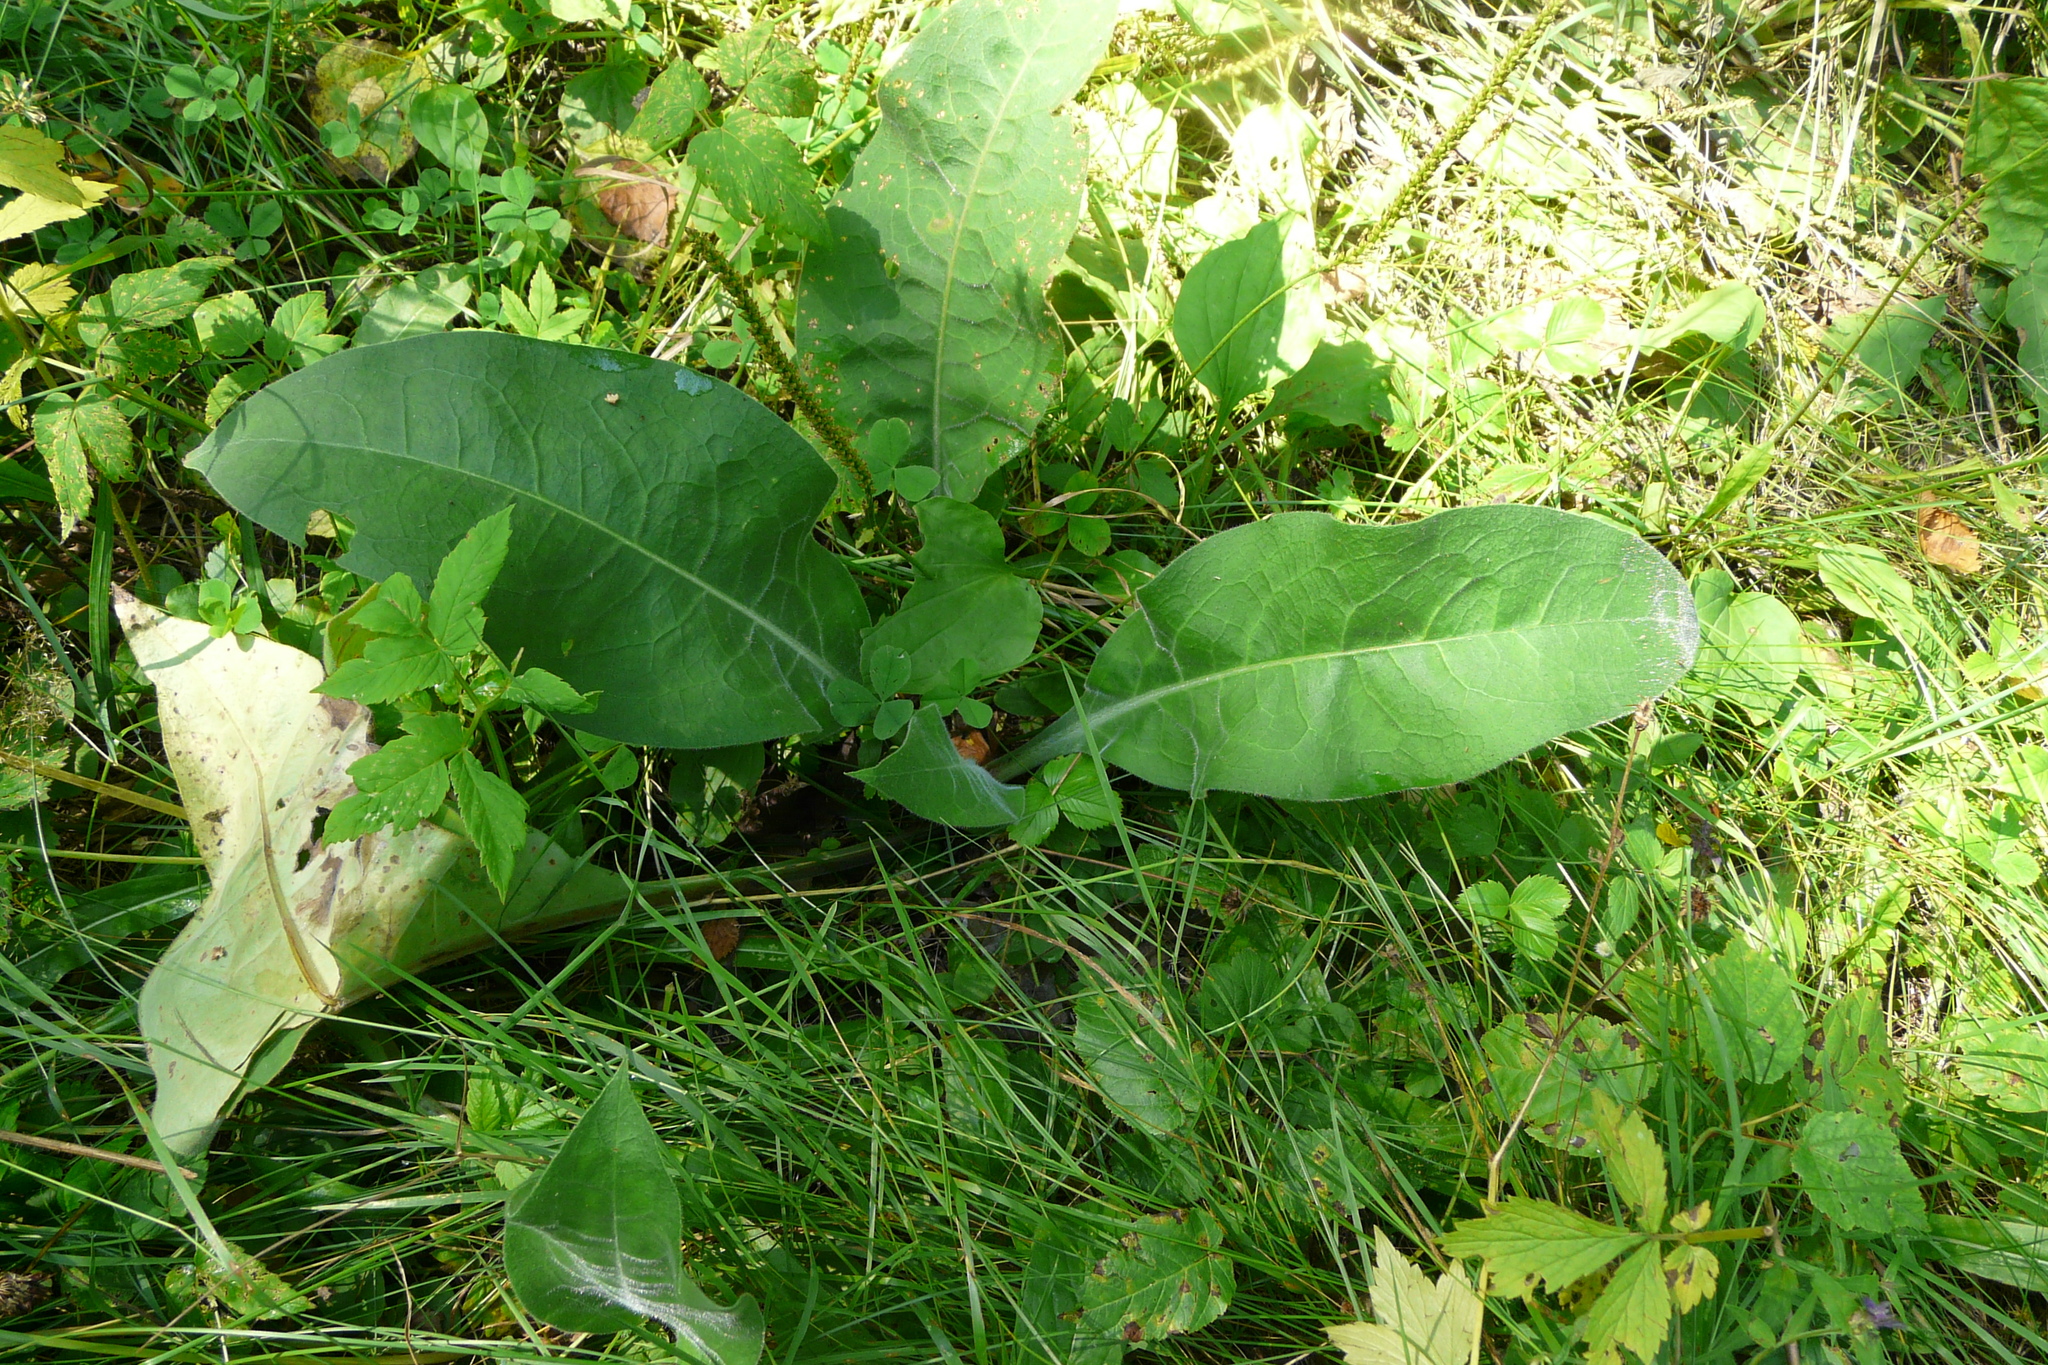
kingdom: Plantae
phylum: Tracheophyta
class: Magnoliopsida
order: Boraginales
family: Boraginaceae
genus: Pulmonaria
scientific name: Pulmonaria mollis
